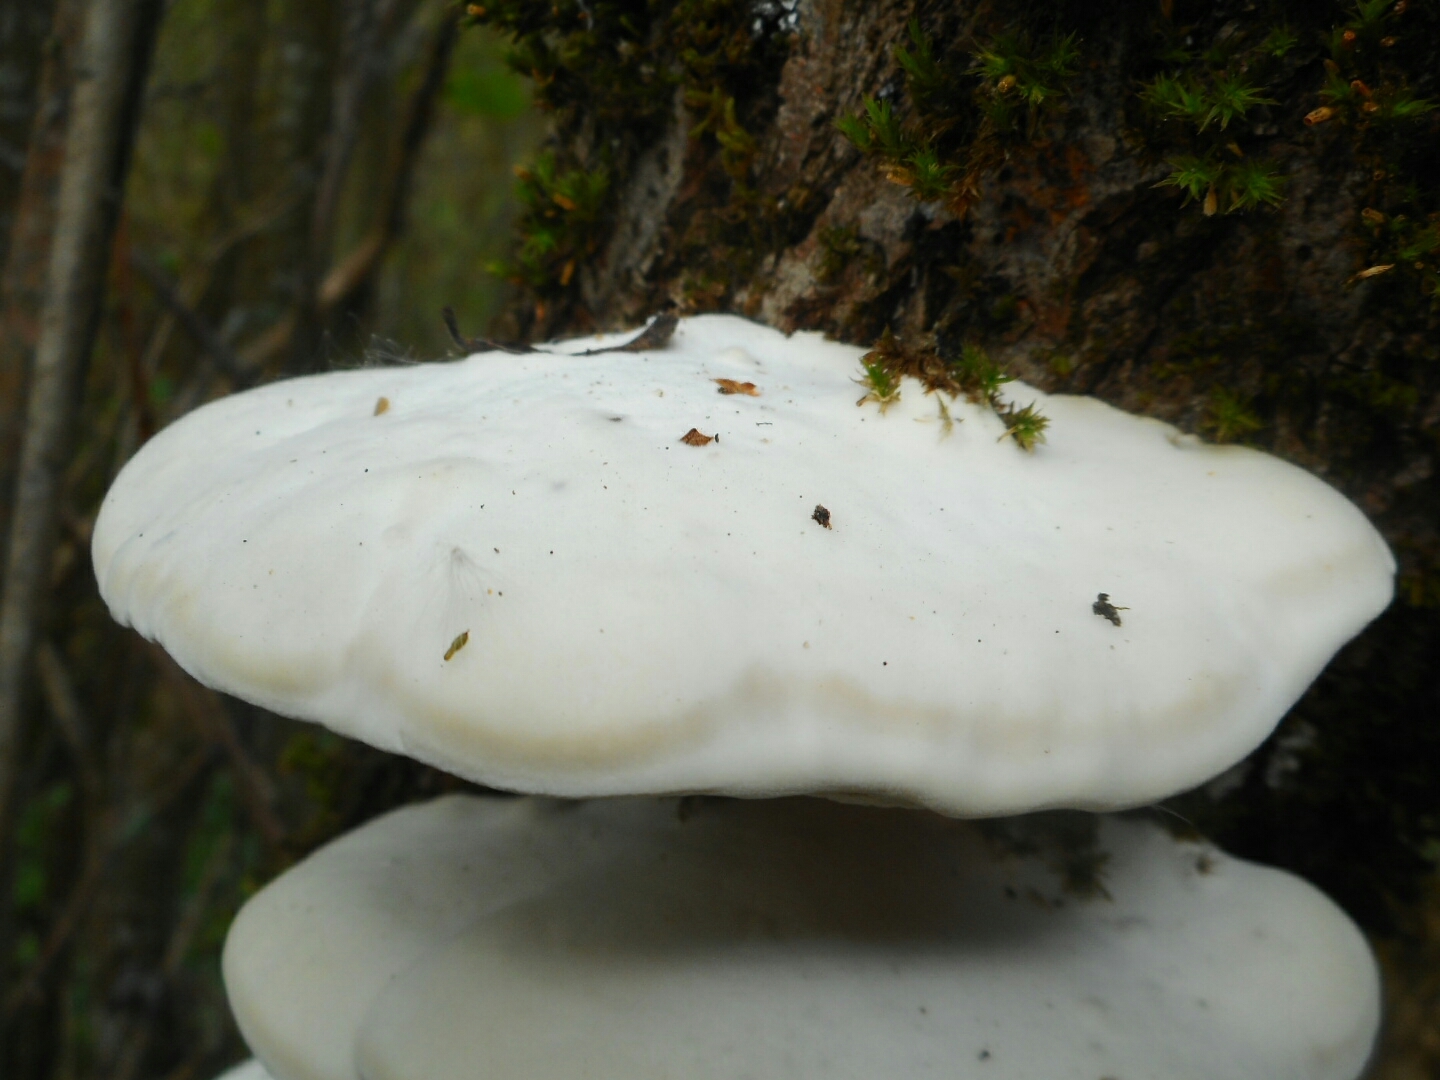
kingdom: Fungi
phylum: Basidiomycota
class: Agaricomycetes
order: Polyporales
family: Polyporaceae
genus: Trametes
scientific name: Trametes suaveolens
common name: Fragrant bracket
